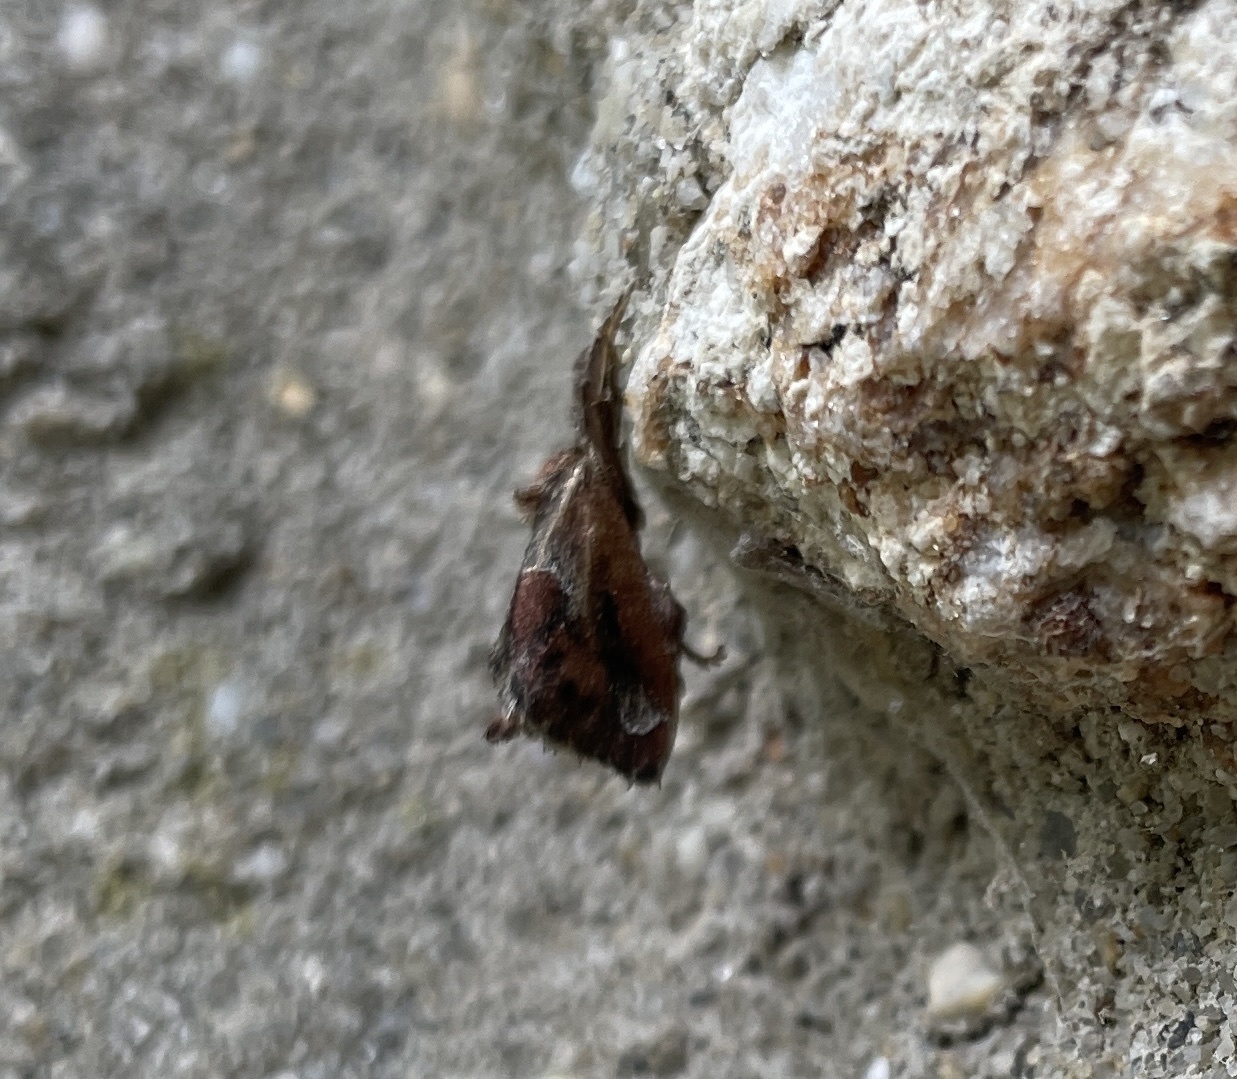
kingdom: Animalia
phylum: Arthropoda
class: Insecta
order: Lepidoptera
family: Limacodidae
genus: Adoneta
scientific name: Adoneta spinuloides
